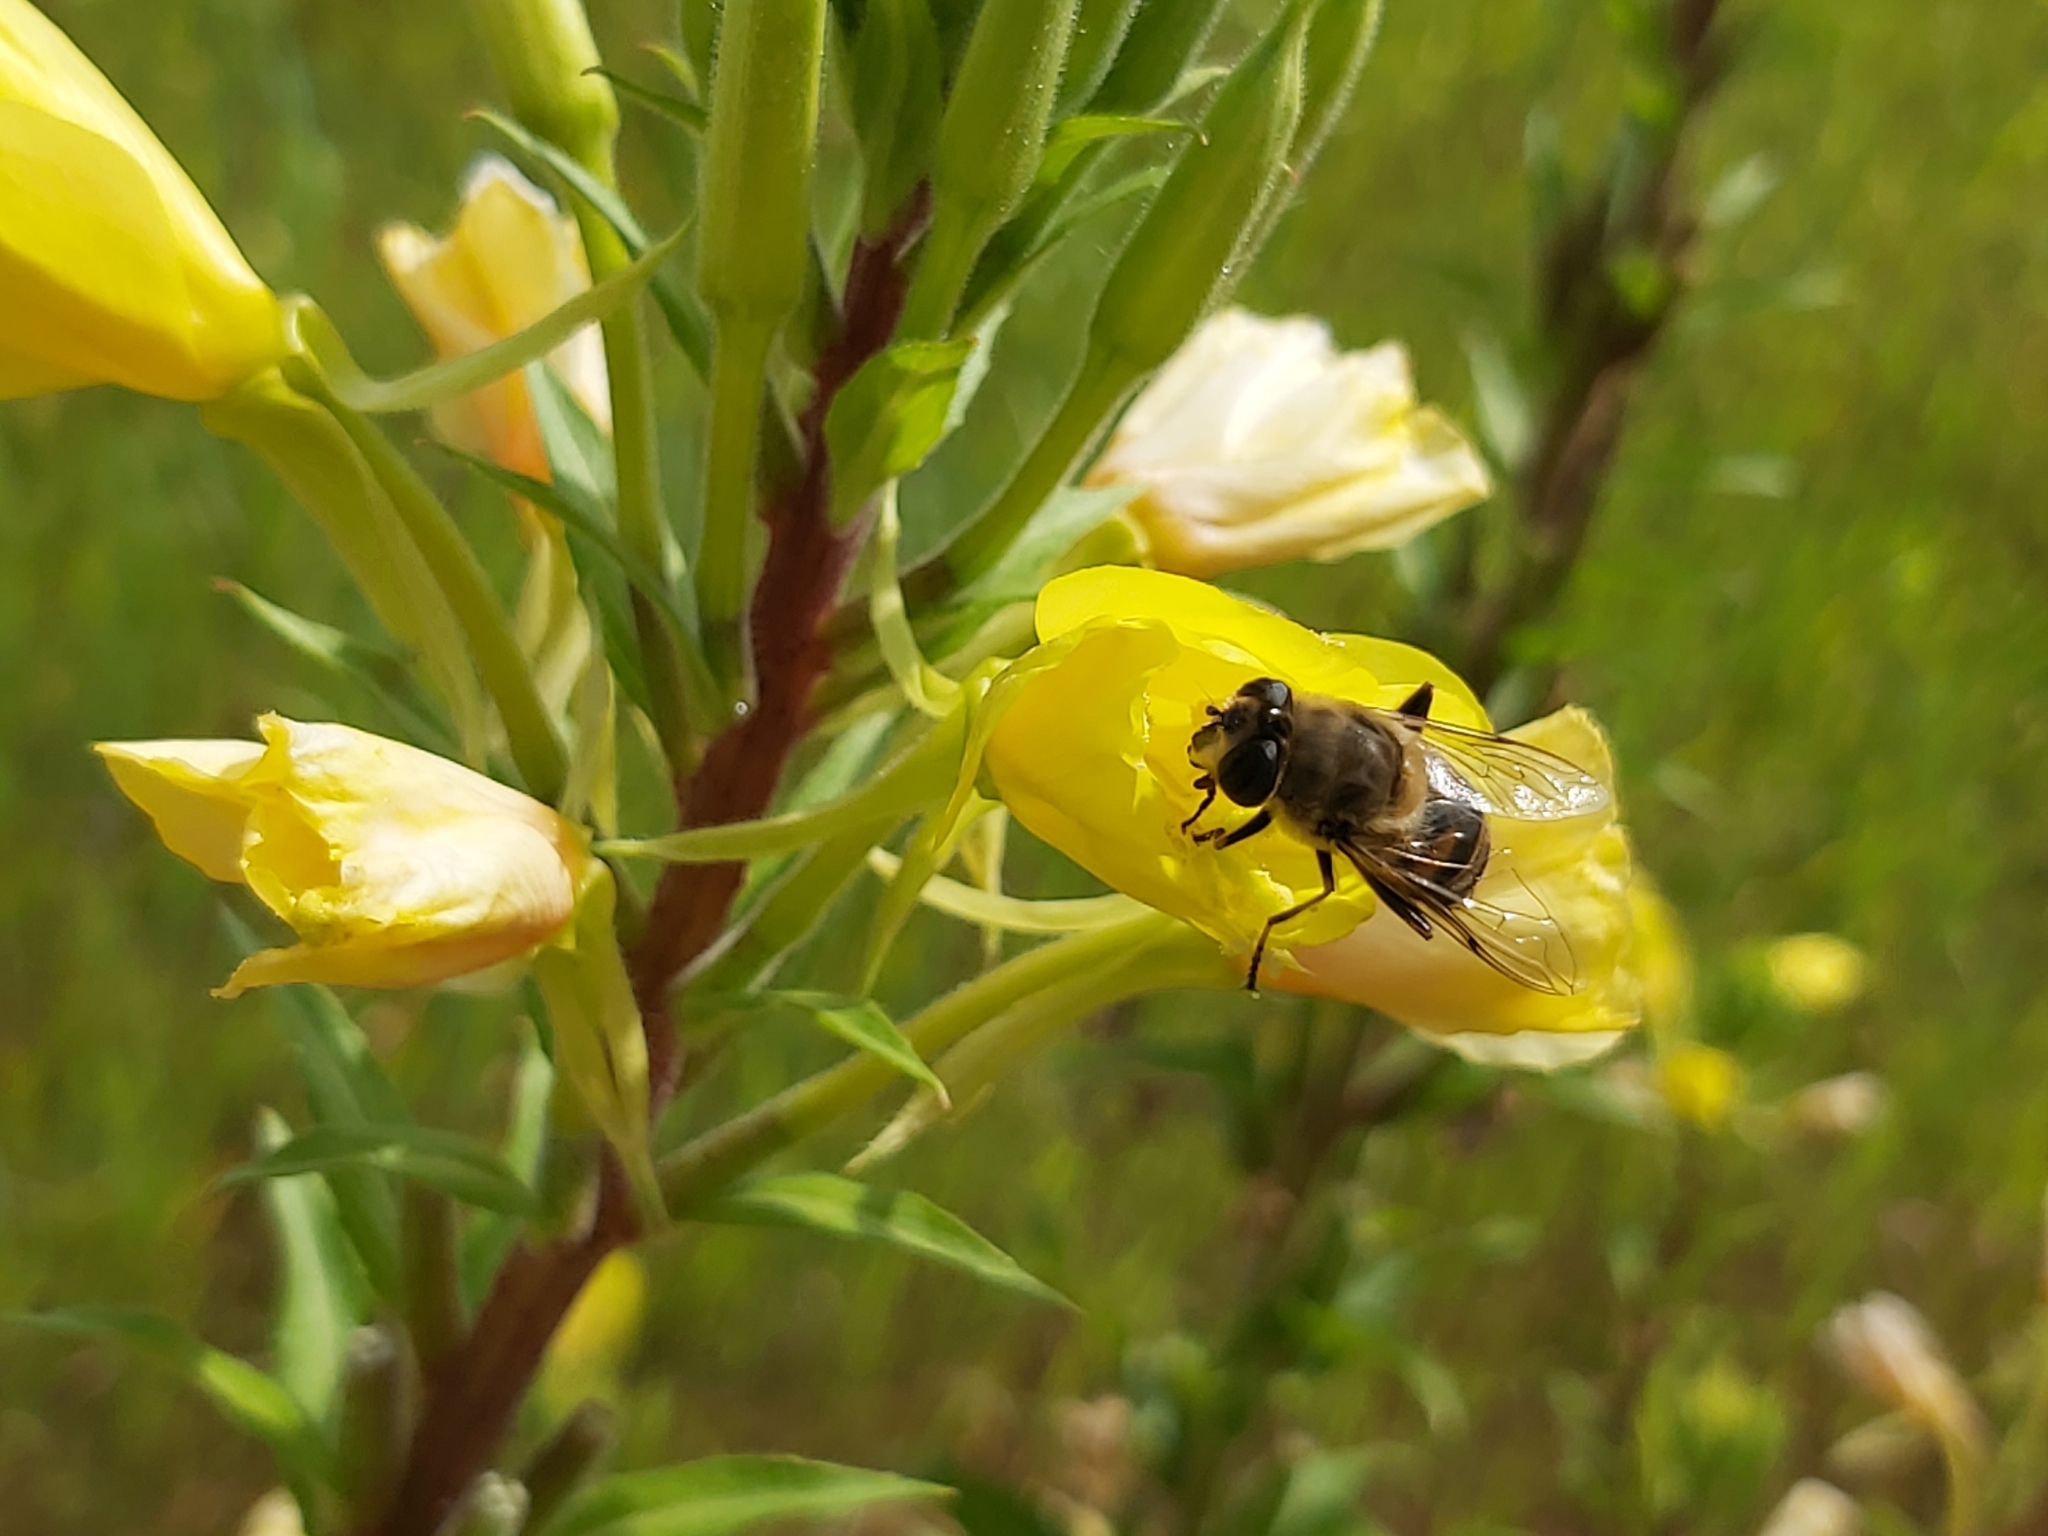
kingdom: Animalia
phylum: Arthropoda
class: Insecta
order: Diptera
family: Syrphidae
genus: Eristalis
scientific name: Eristalis tenax
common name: Drone fly
